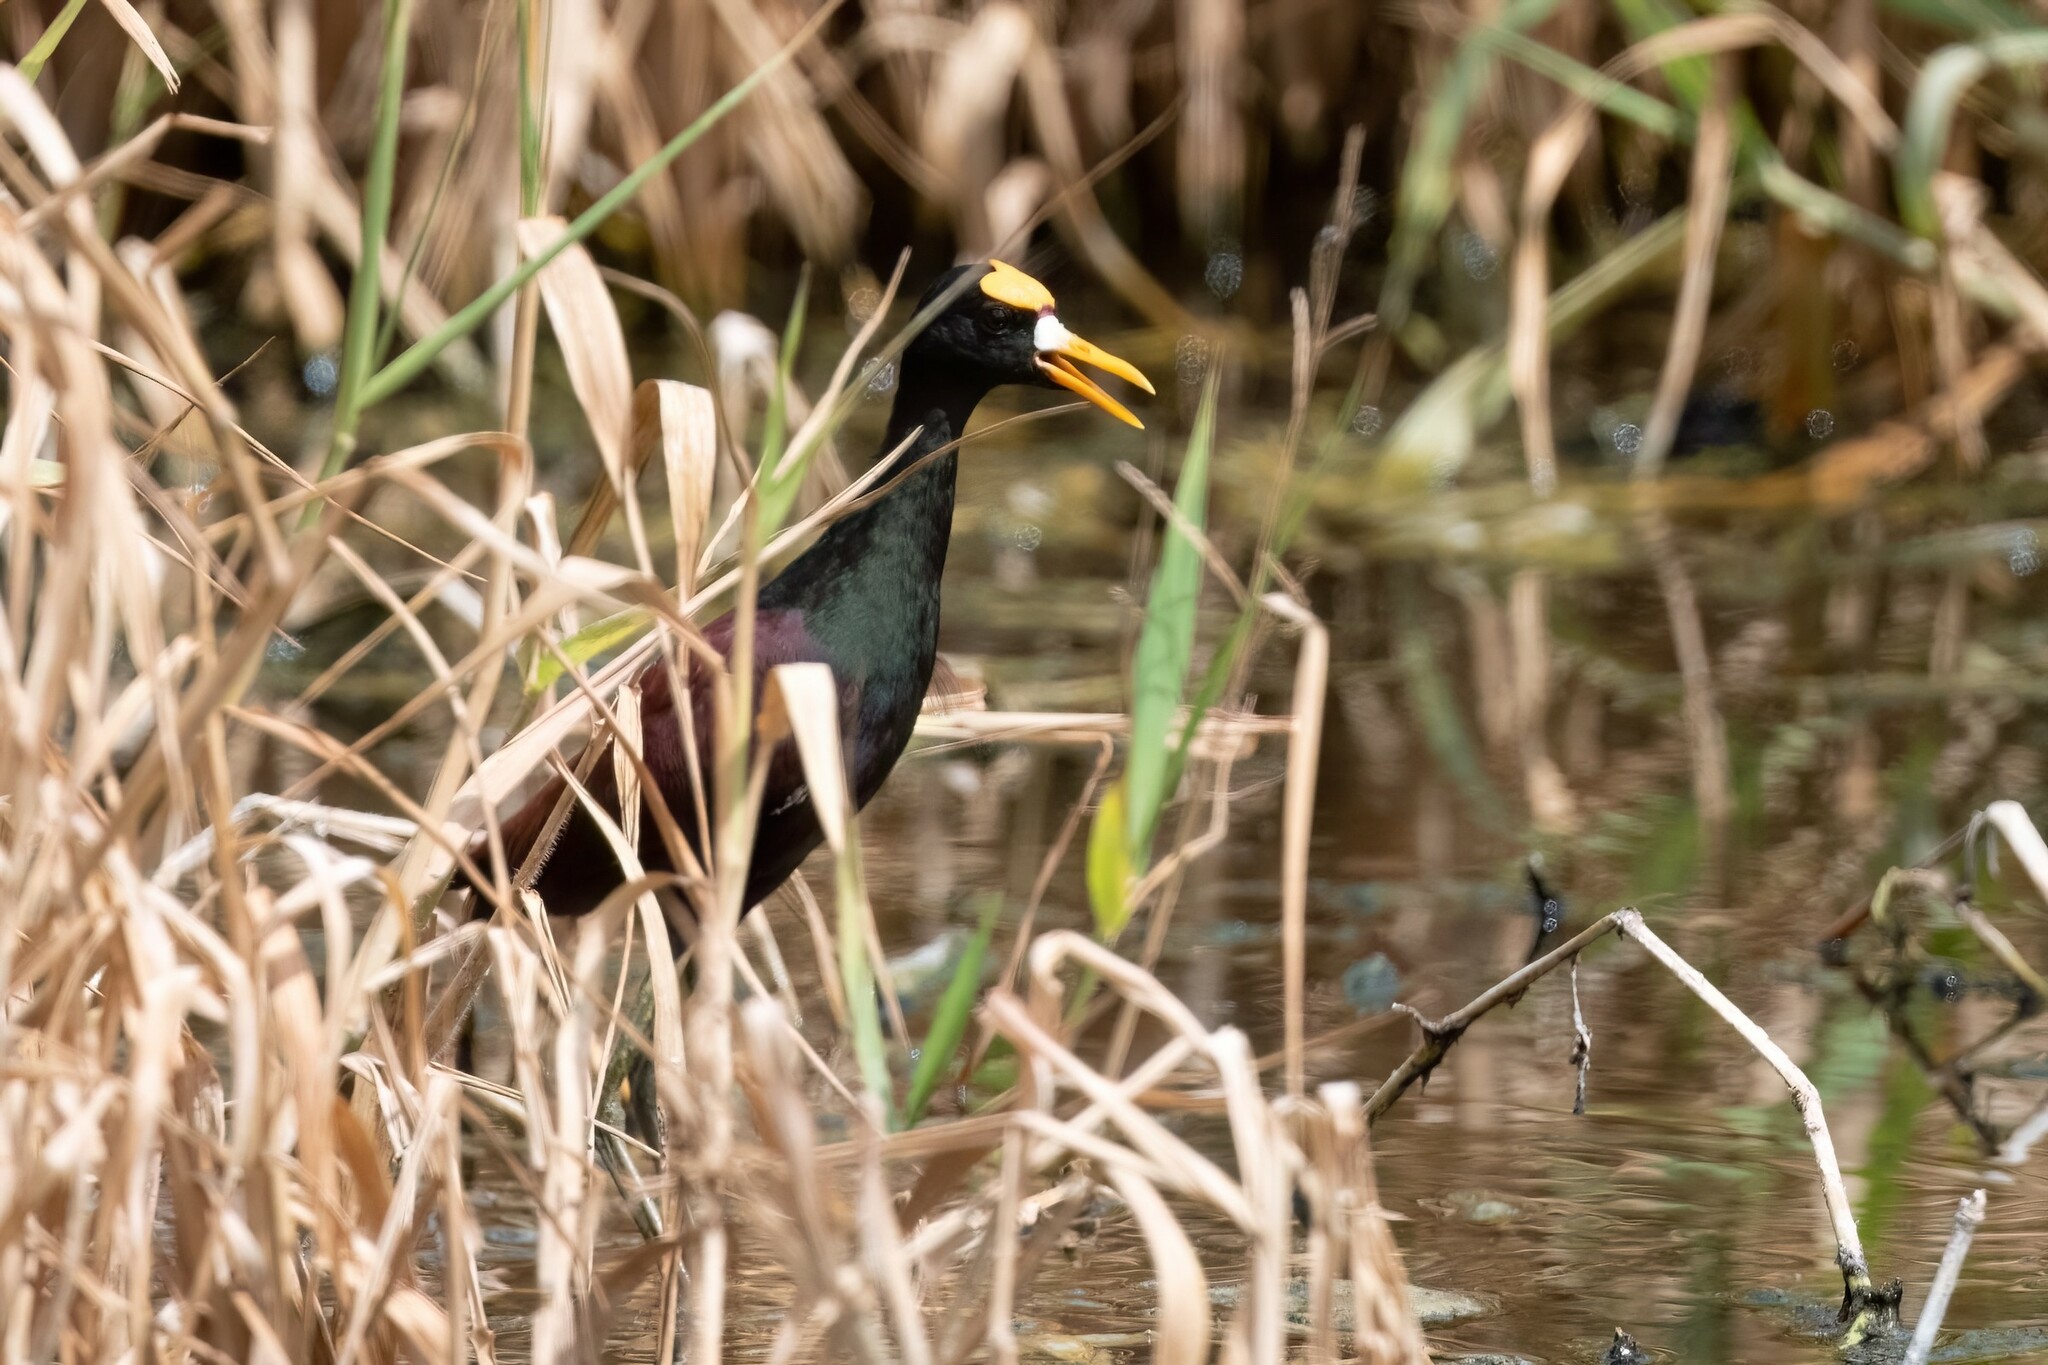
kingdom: Animalia
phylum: Chordata
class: Aves
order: Charadriiformes
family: Jacanidae
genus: Jacana
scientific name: Jacana spinosa
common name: Northern jacana
